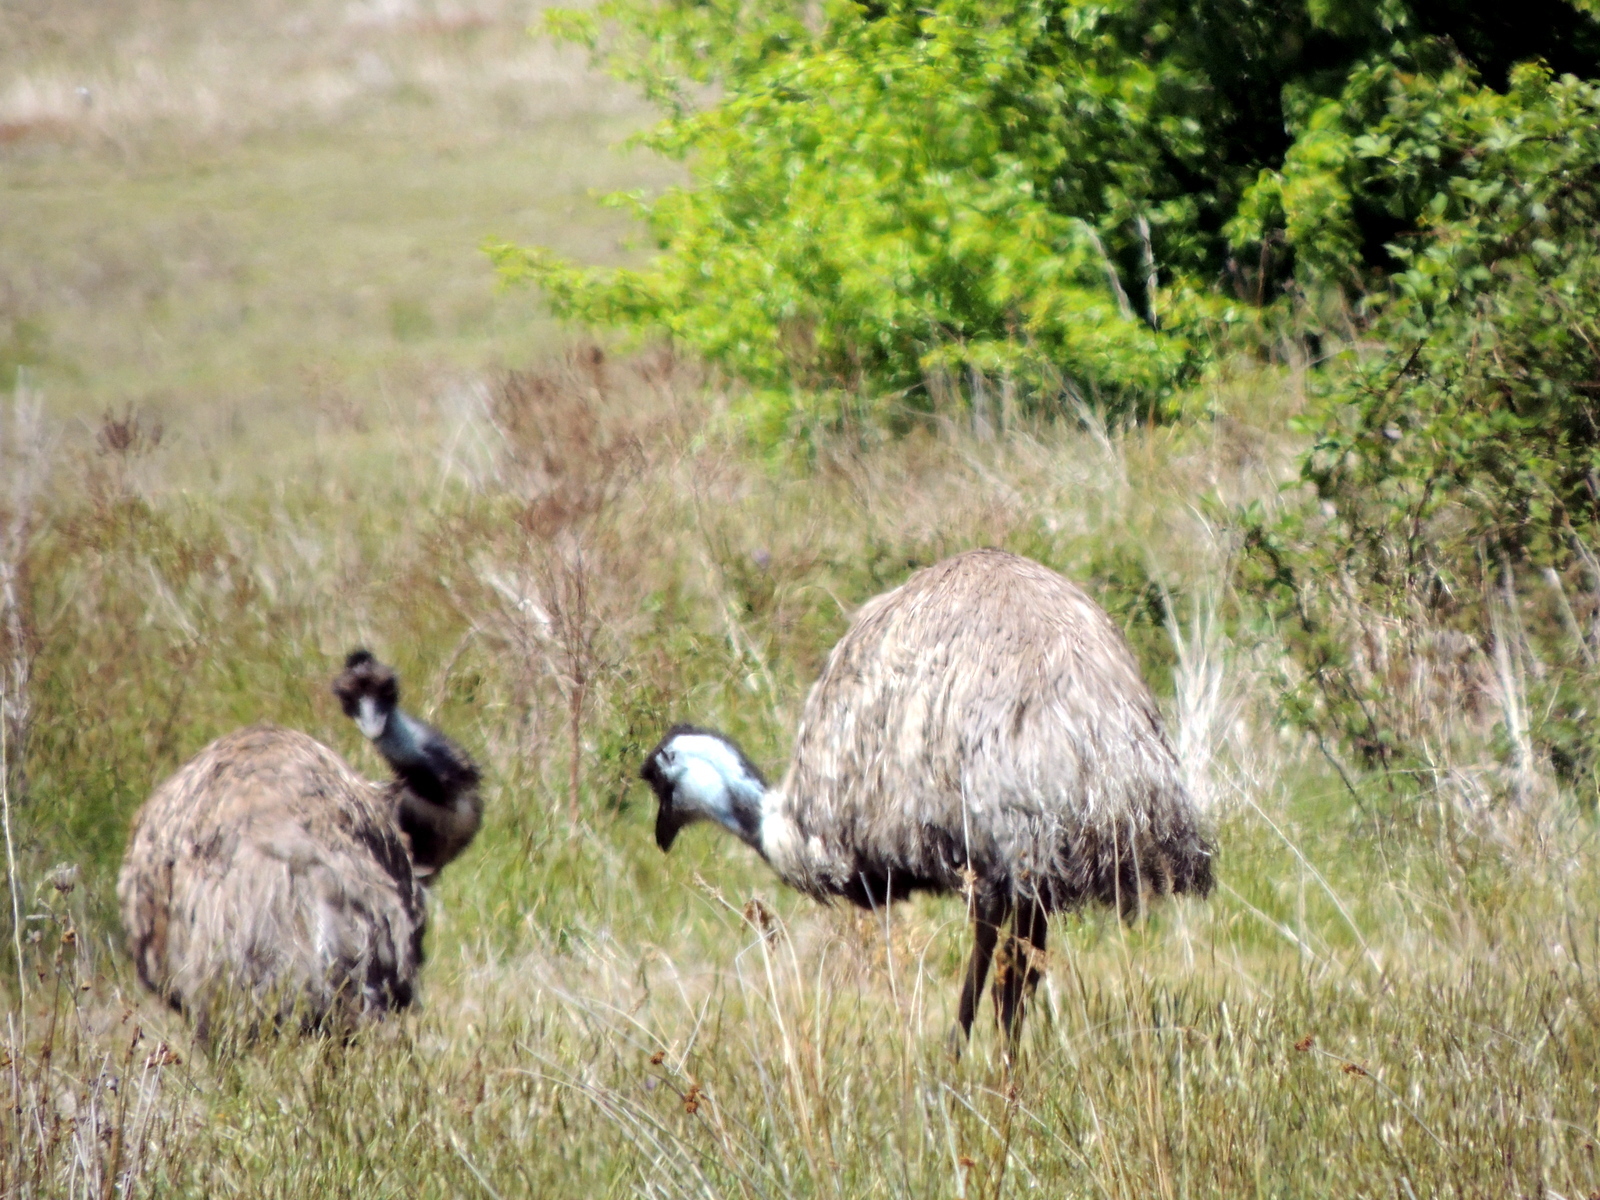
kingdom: Animalia
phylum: Chordata
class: Aves
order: Casuariiformes
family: Dromaiidae
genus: Dromaius
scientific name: Dromaius novaehollandiae
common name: Emu
